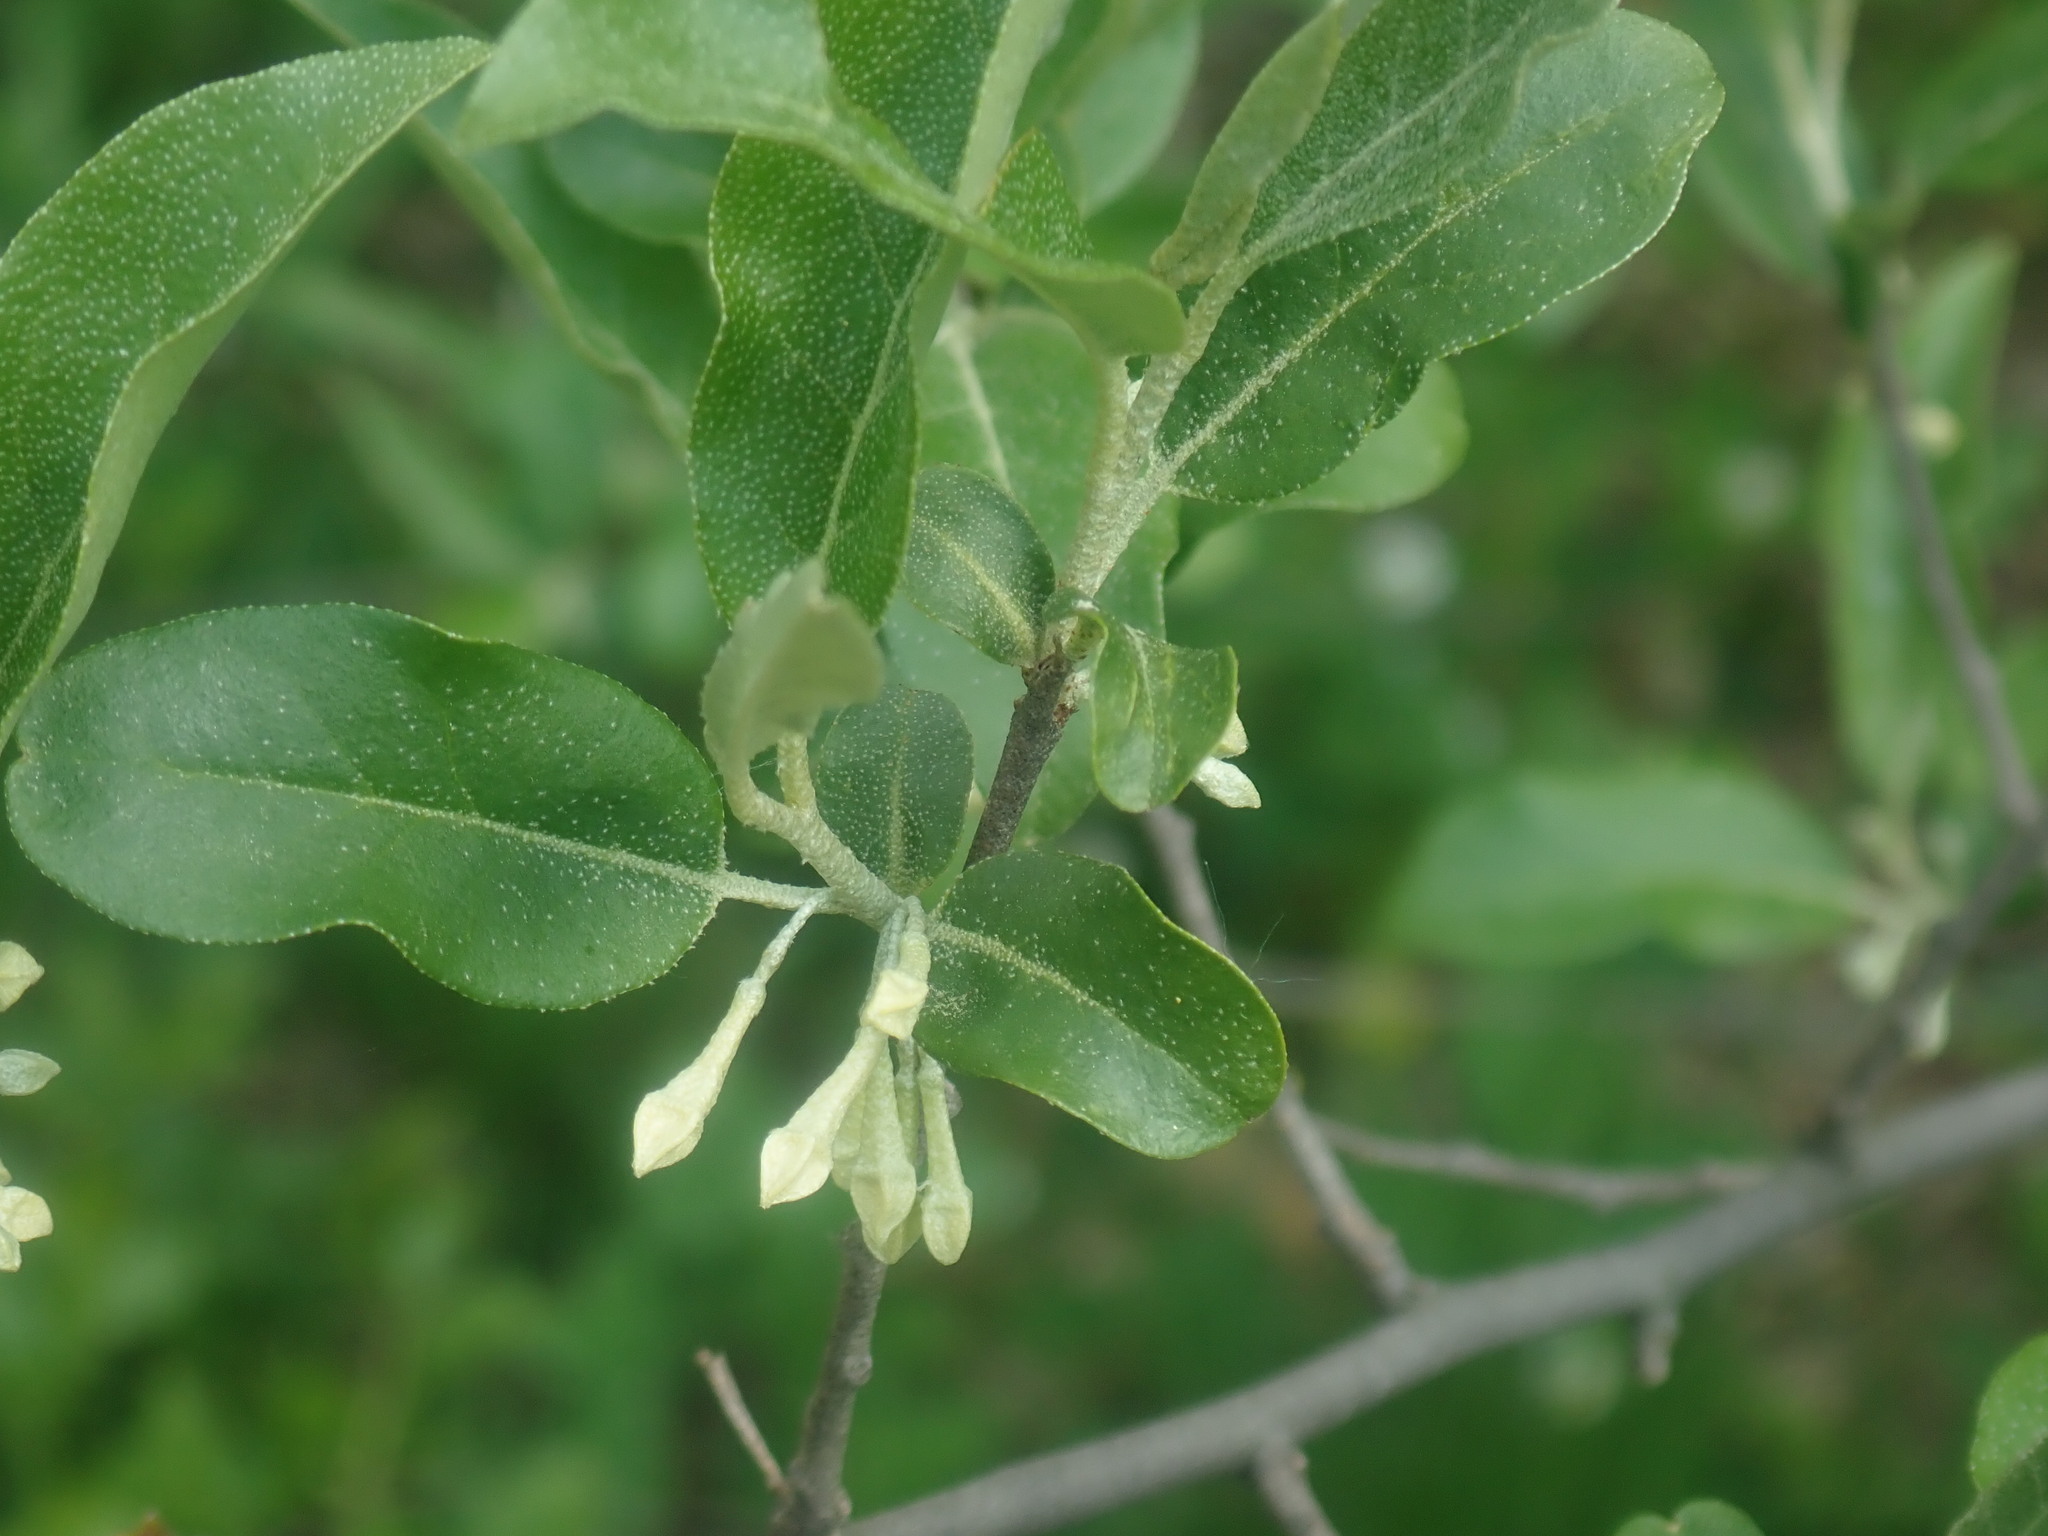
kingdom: Plantae
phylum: Tracheophyta
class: Magnoliopsida
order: Rosales
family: Elaeagnaceae
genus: Elaeagnus
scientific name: Elaeagnus umbellata
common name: Autumn olive
